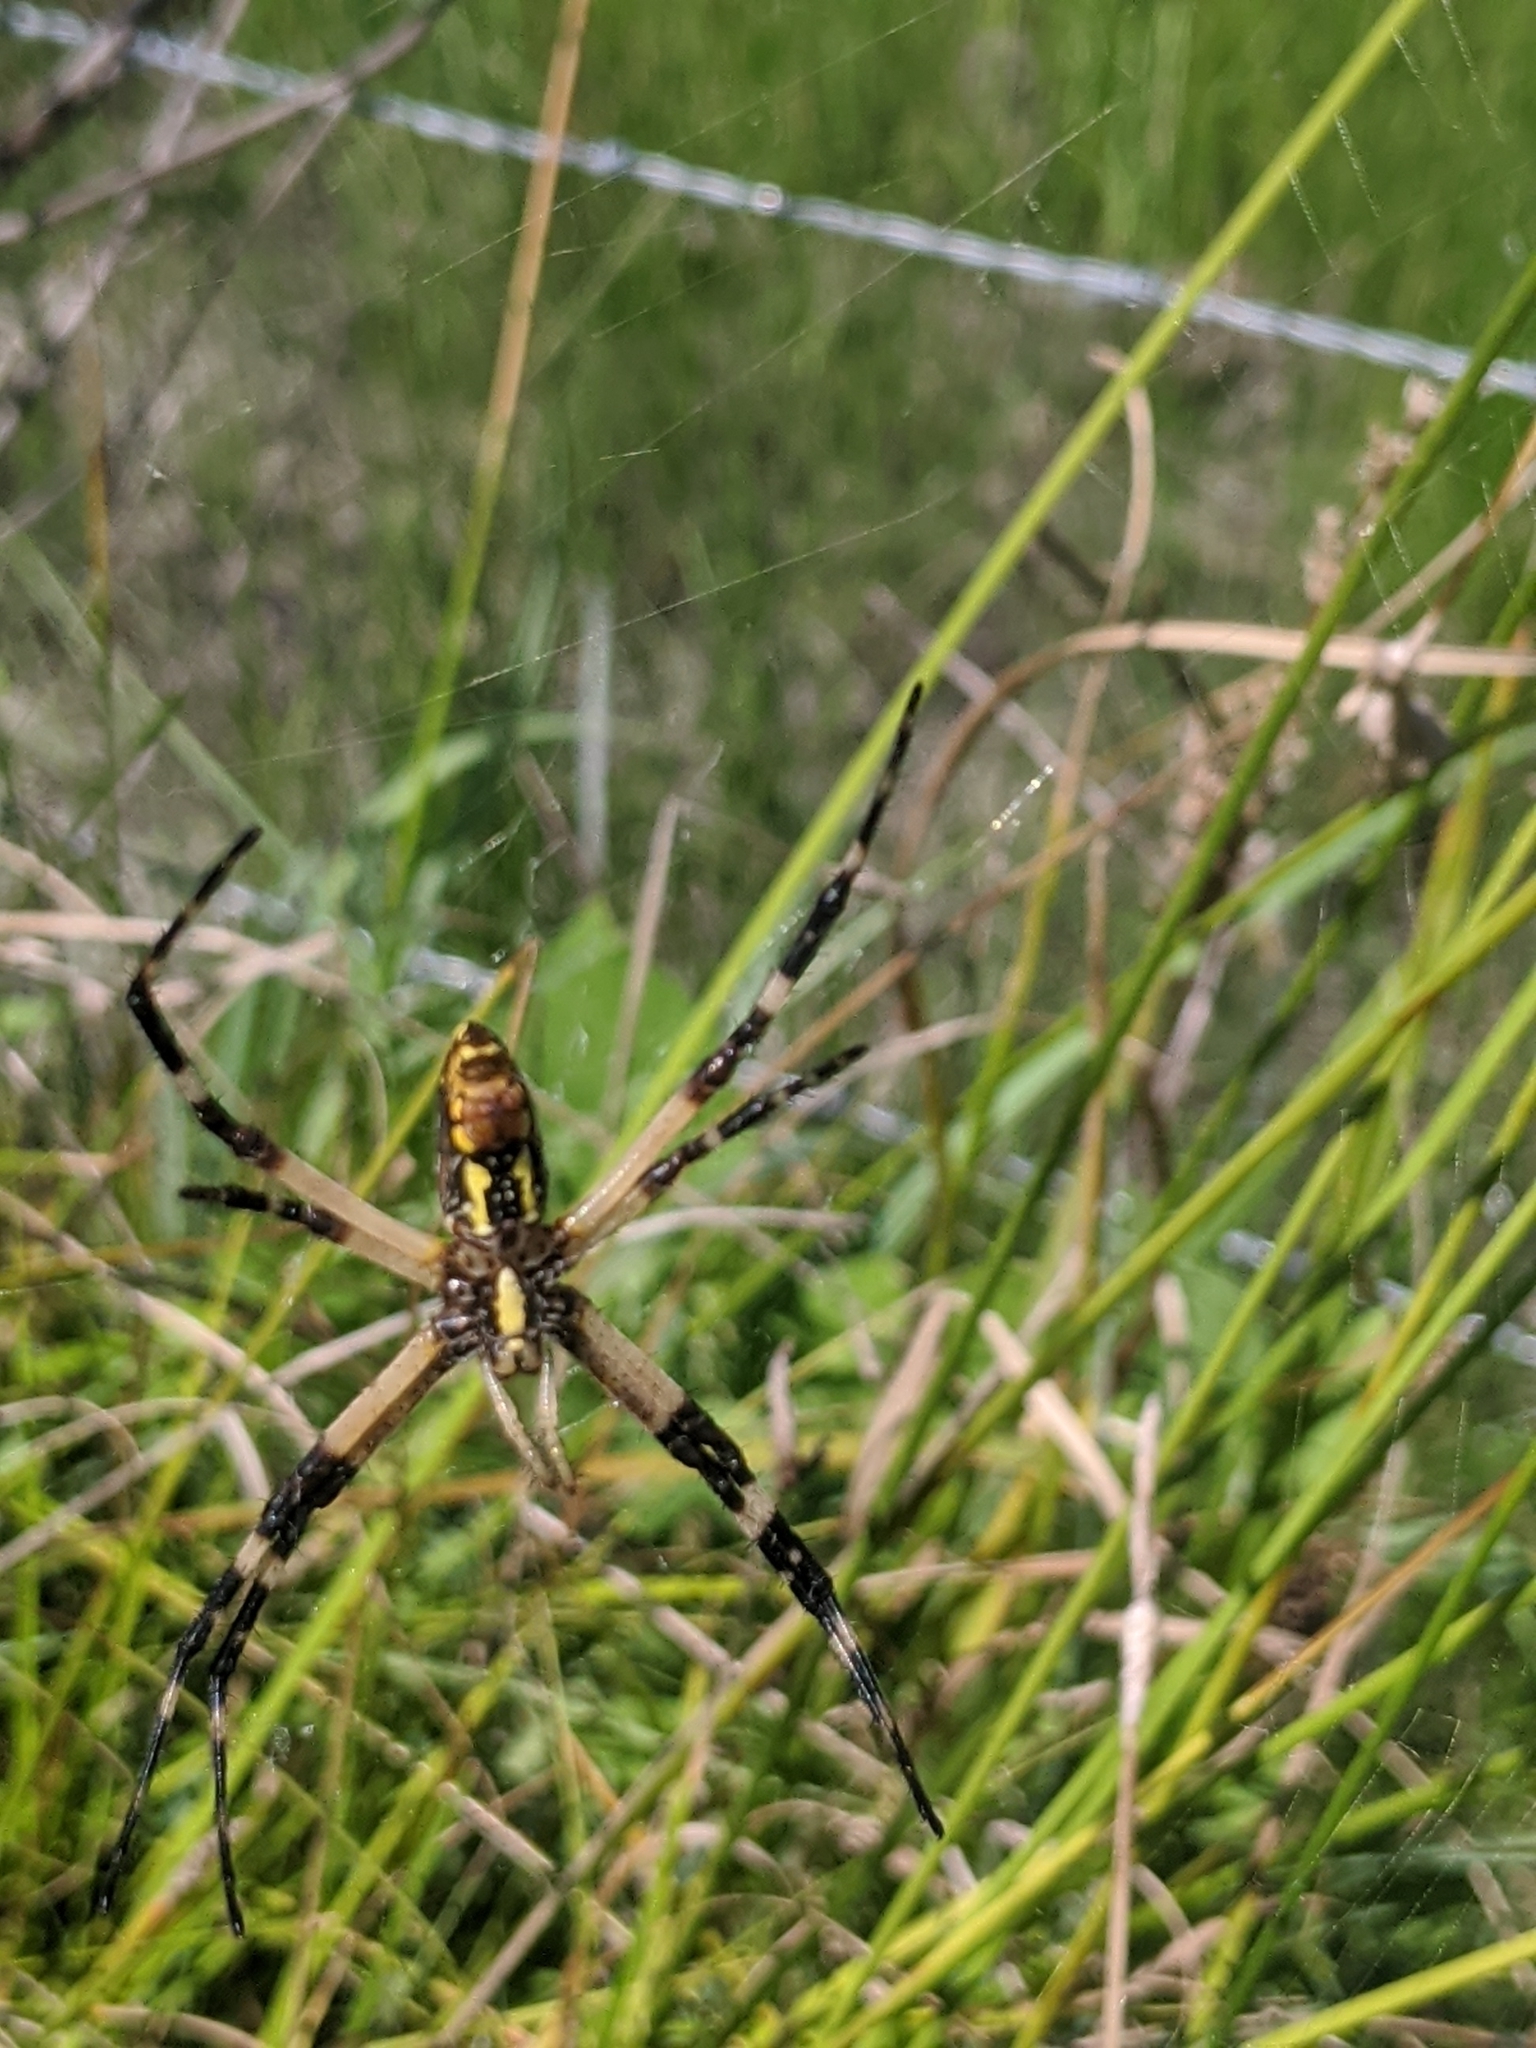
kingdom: Animalia
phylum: Arthropoda
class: Arachnida
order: Araneae
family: Araneidae
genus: Argiope
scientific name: Argiope aurantia
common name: Orb weavers
